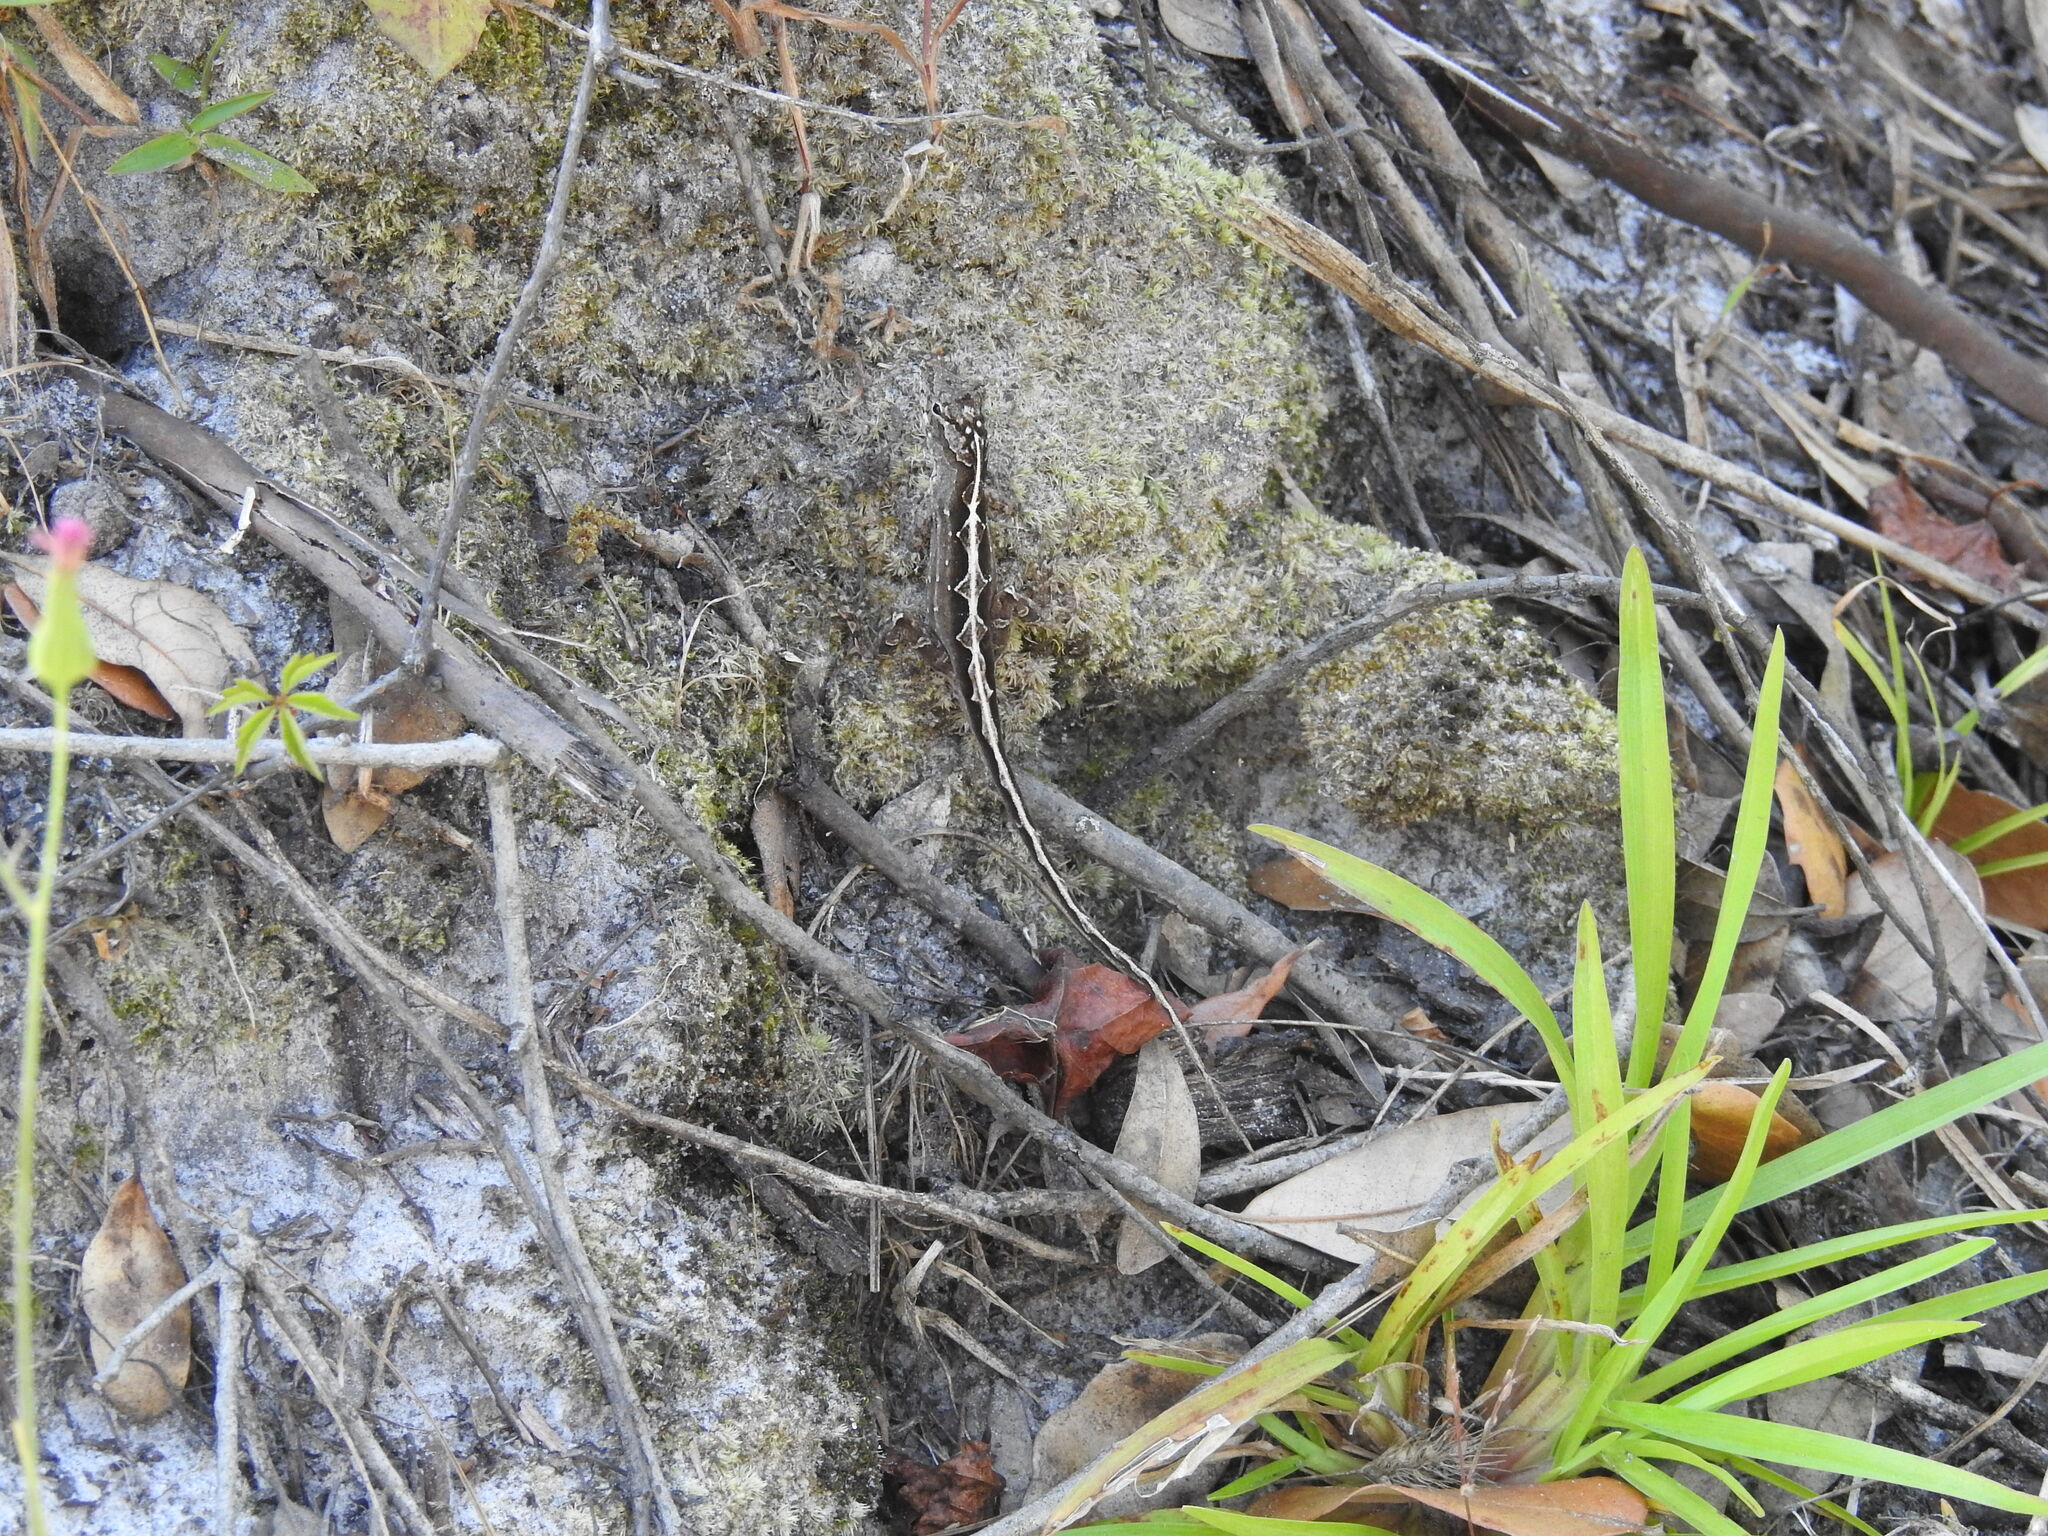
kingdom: Animalia
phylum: Chordata
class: Squamata
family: Dactyloidae
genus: Anolis
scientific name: Anolis sagrei
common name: Brown anole
